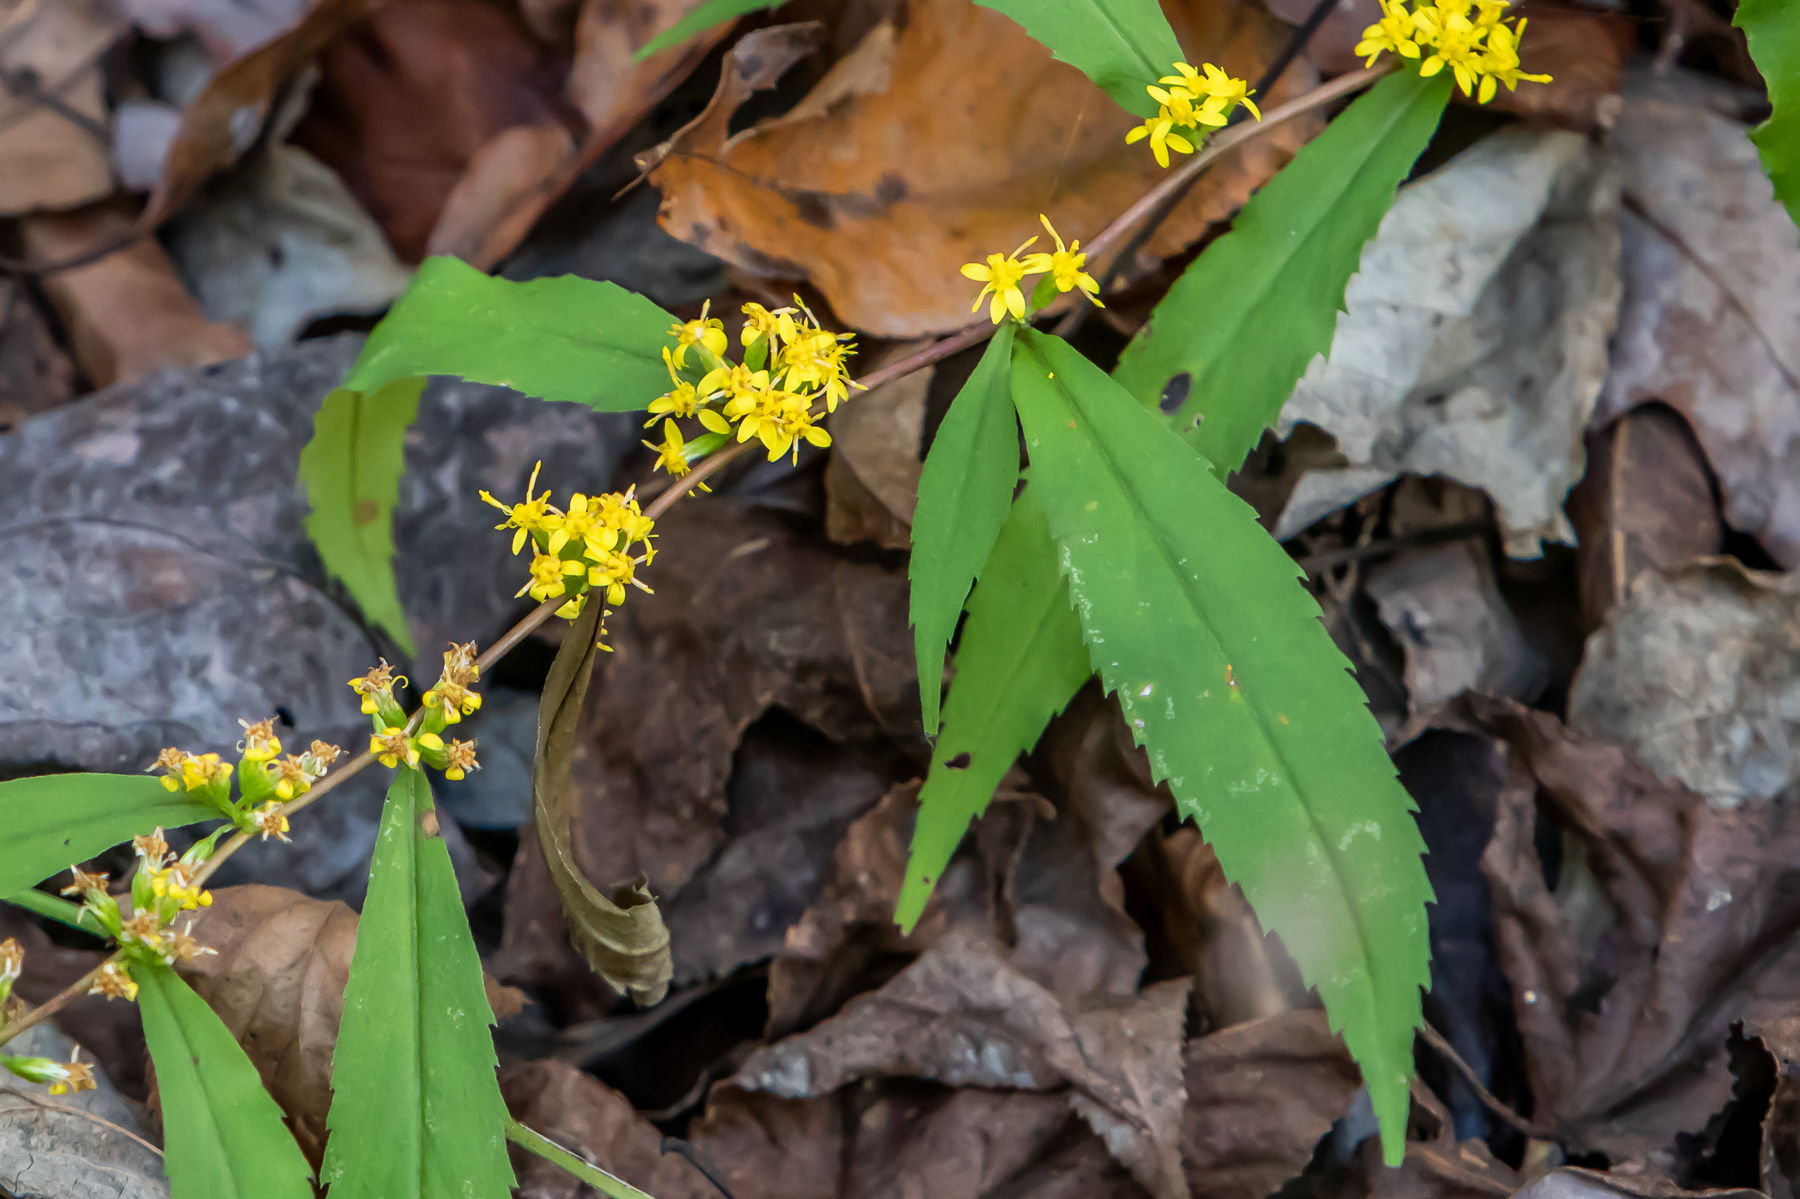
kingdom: Plantae
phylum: Tracheophyta
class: Magnoliopsida
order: Asterales
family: Asteraceae
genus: Solidago
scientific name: Solidago caesia
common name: Woodland goldenrod
